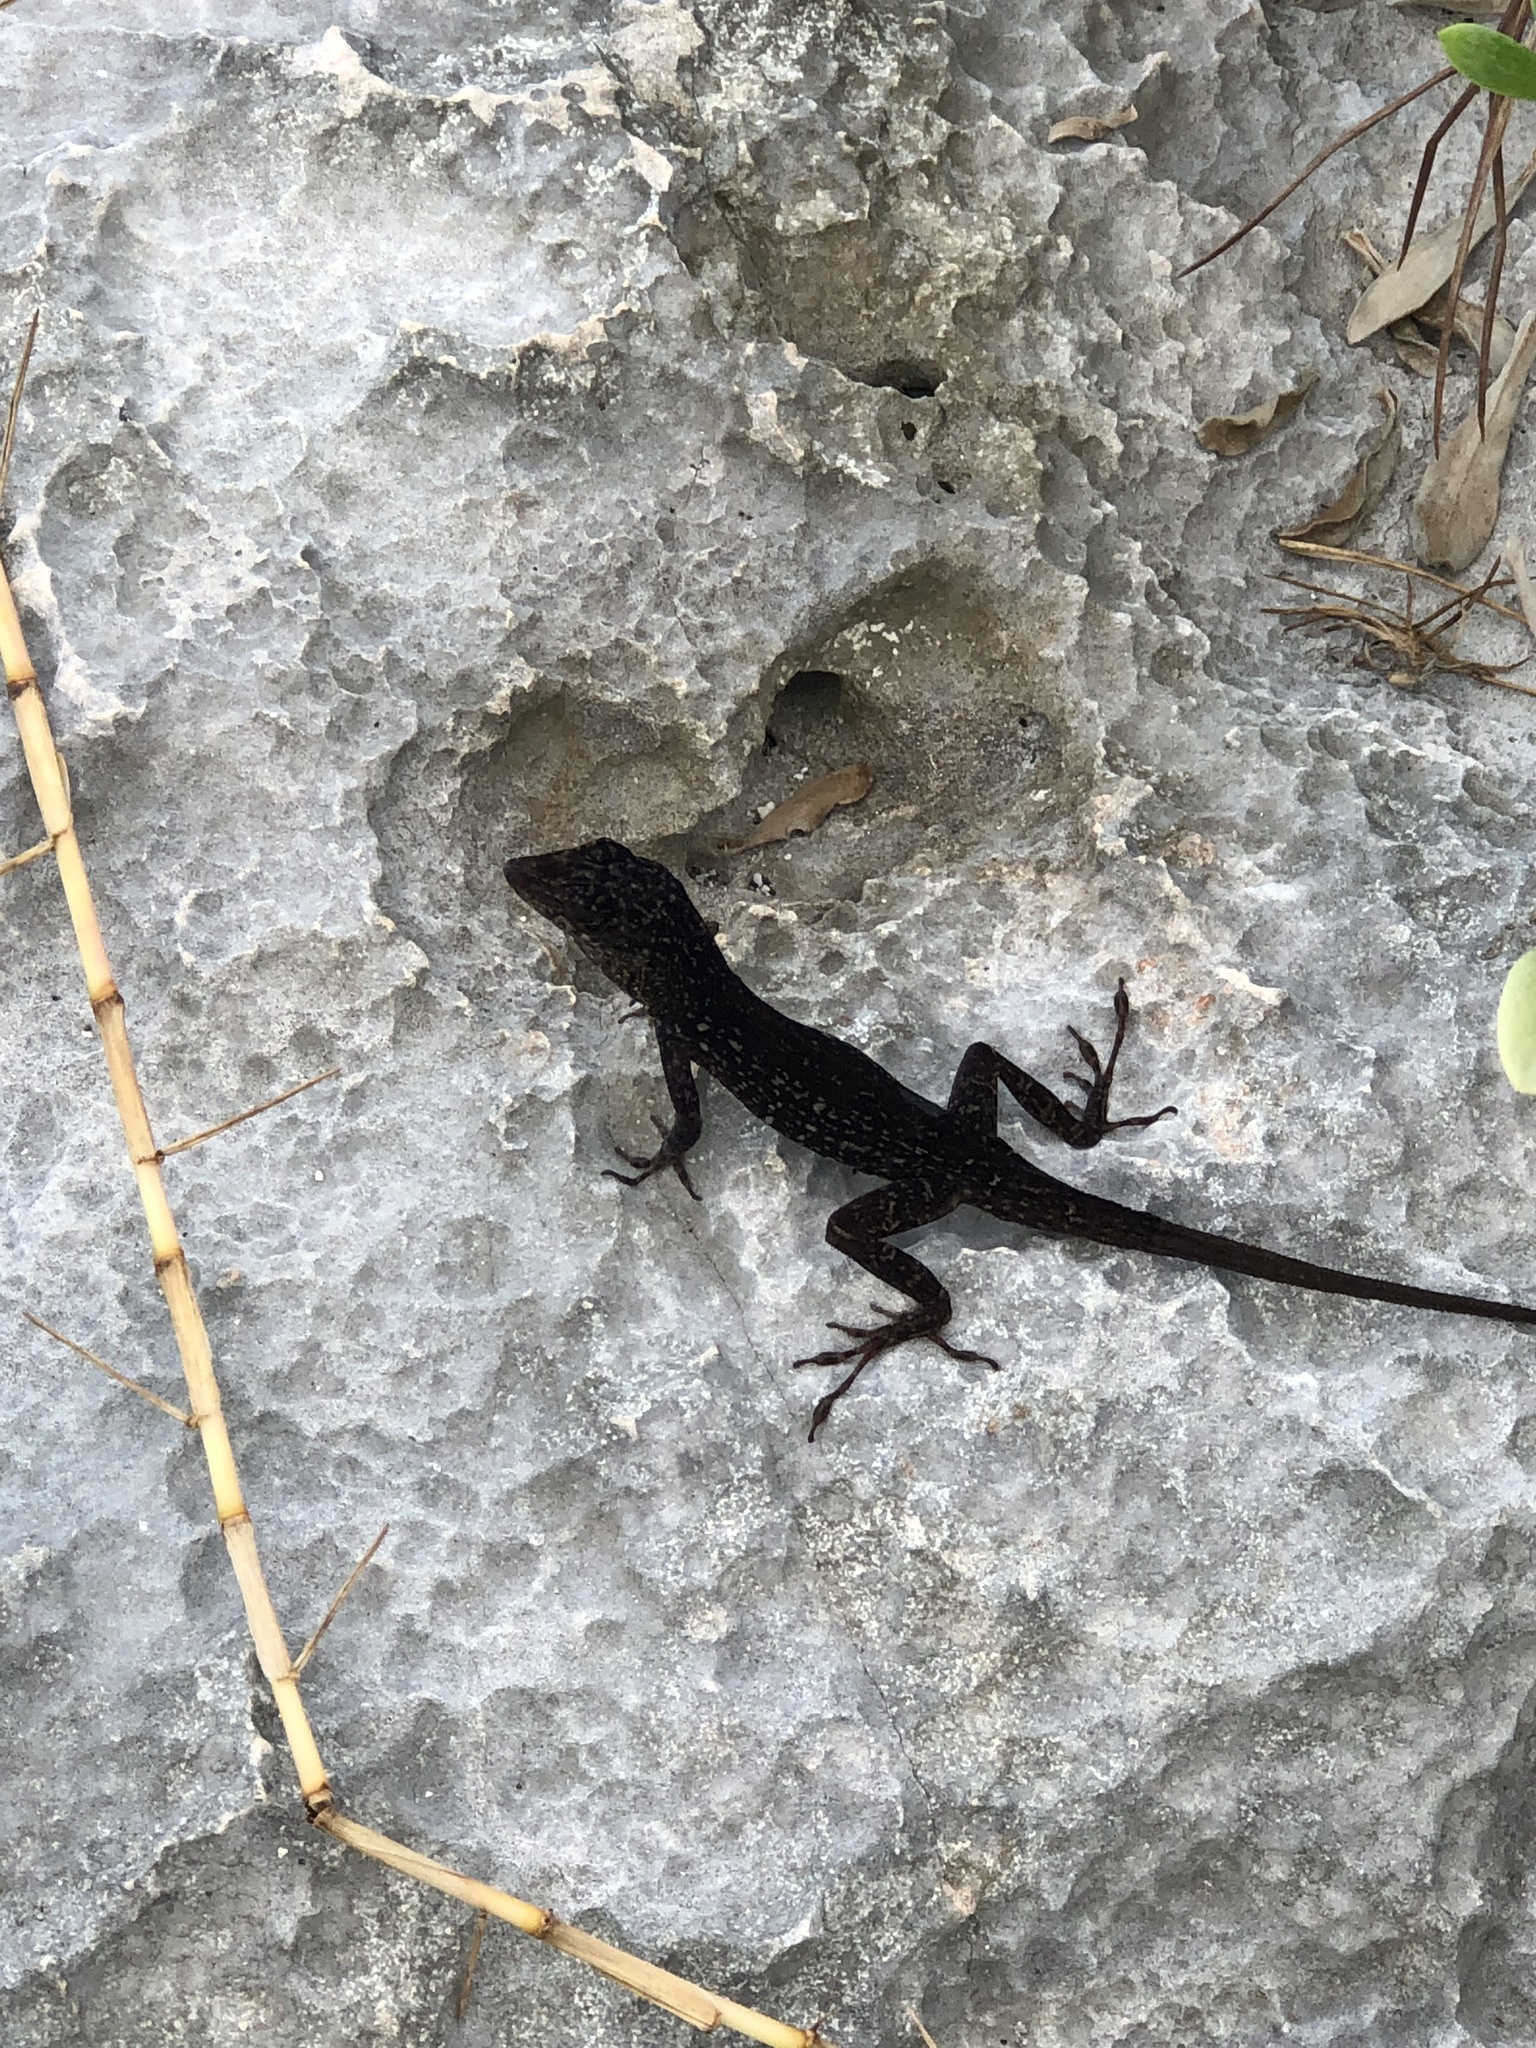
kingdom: Animalia
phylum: Chordata
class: Squamata
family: Dactyloidae
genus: Anolis
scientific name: Anolis sagrei
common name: Brown anole
